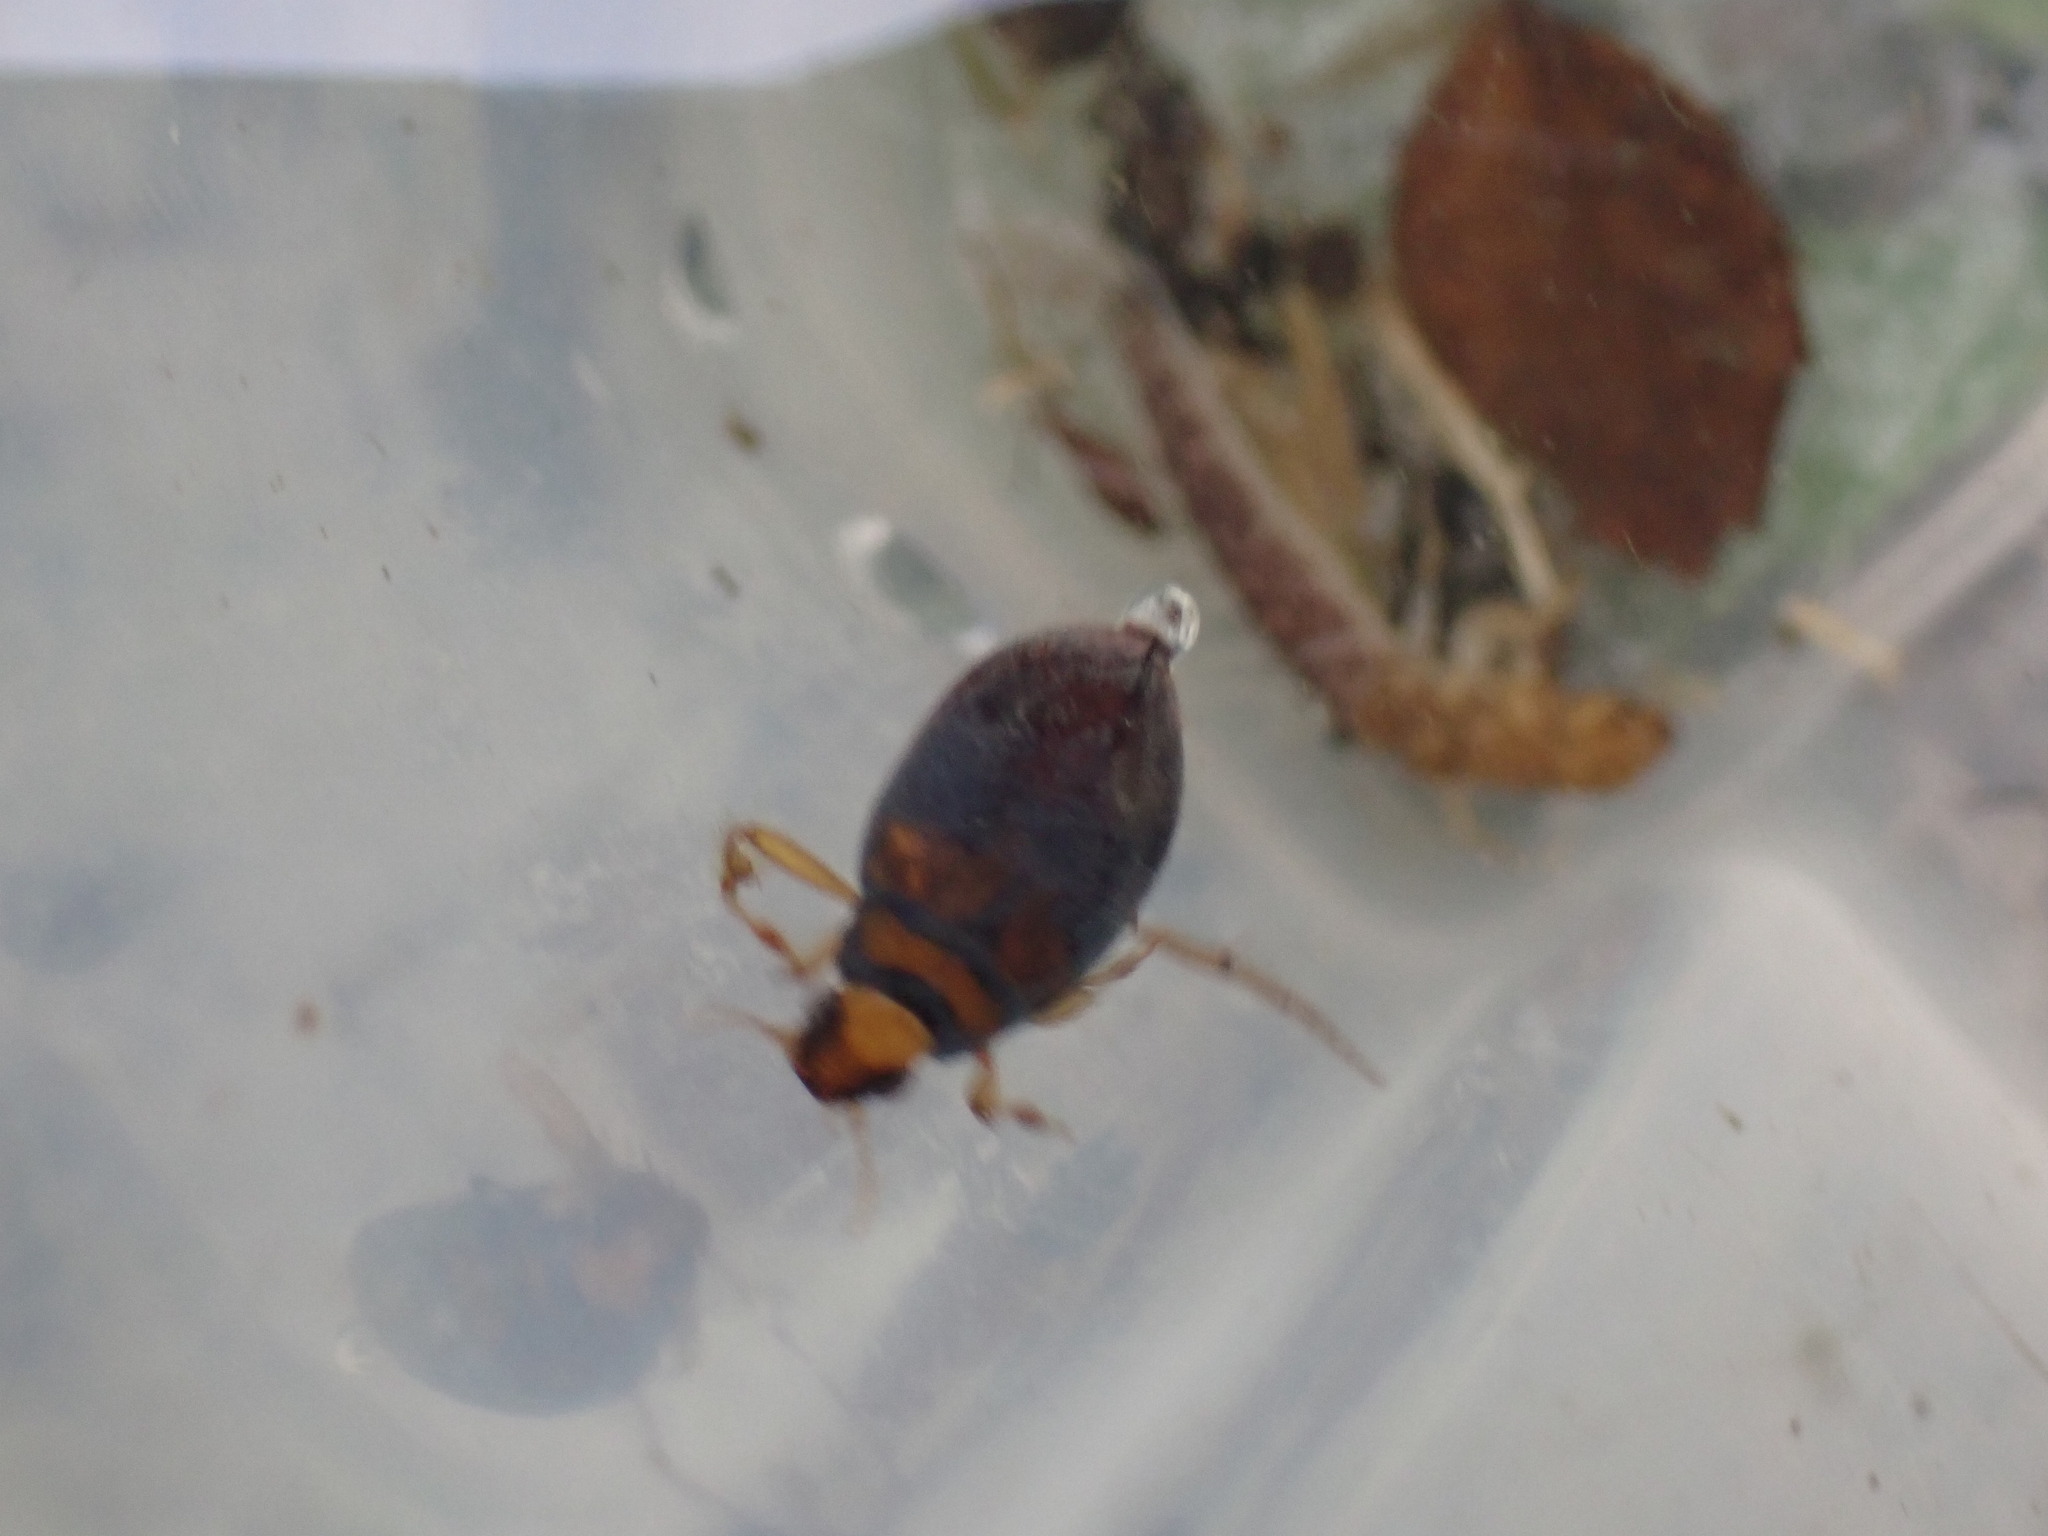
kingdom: Animalia
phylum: Arthropoda
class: Insecta
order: Coleoptera
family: Hygrobiidae
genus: Hygrobia
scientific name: Hygrobia hermanni
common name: Screech beetle
